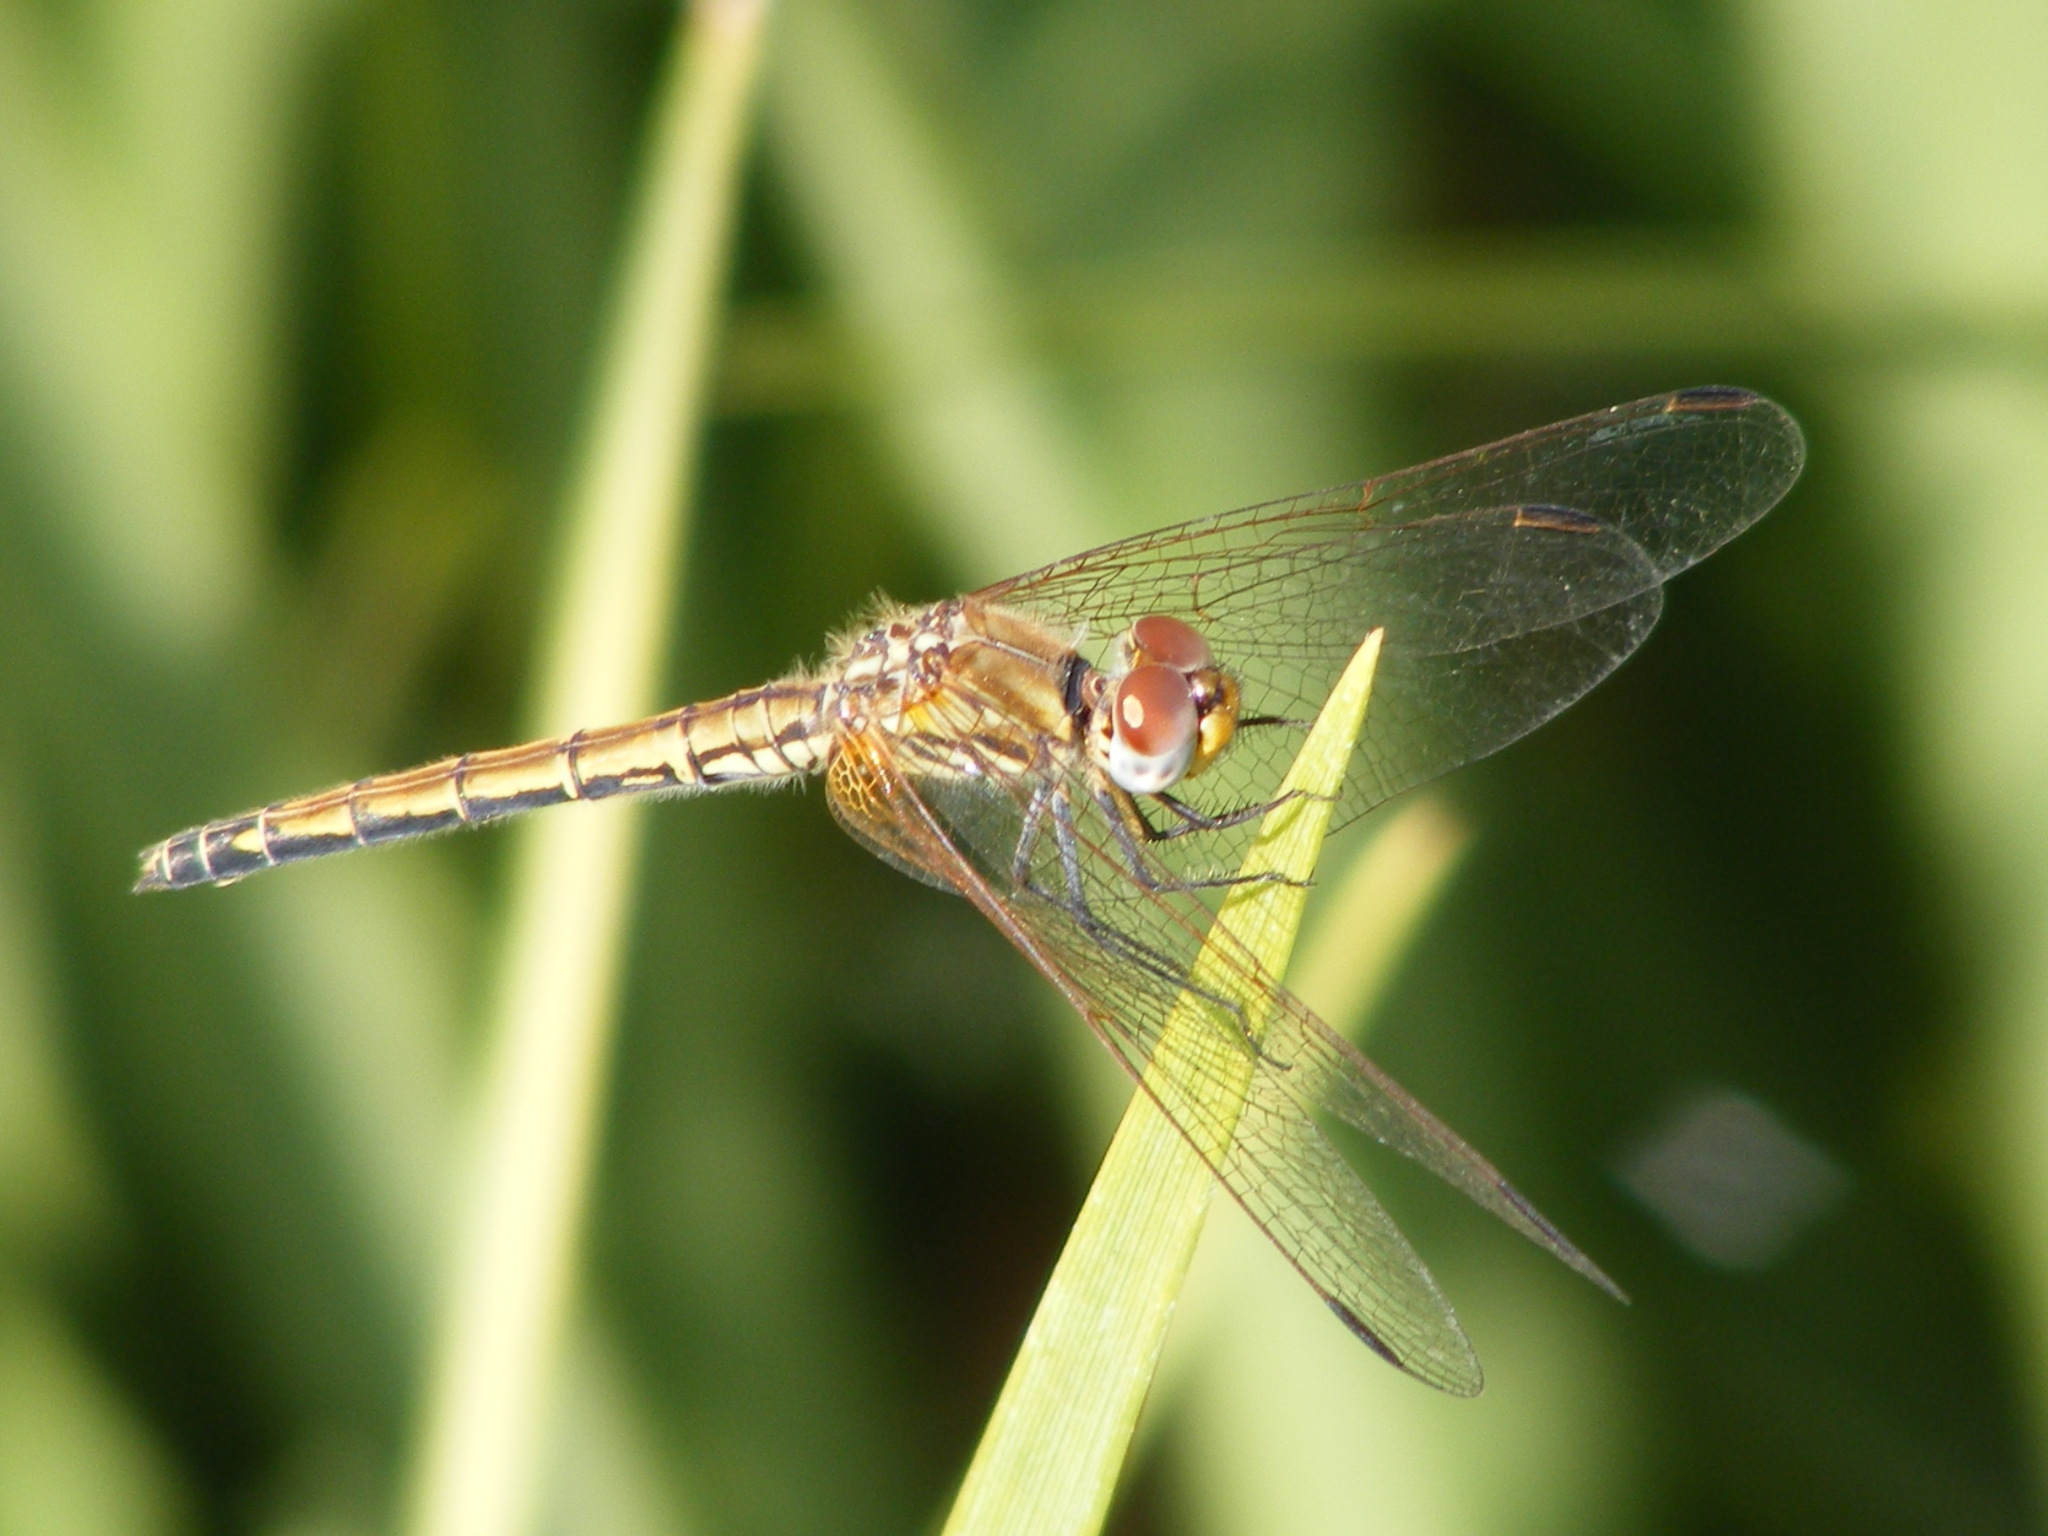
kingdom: Animalia
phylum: Arthropoda
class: Insecta
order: Odonata
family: Libellulidae
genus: Trithemis
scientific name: Trithemis arteriosa
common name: Red-veined dropwing
